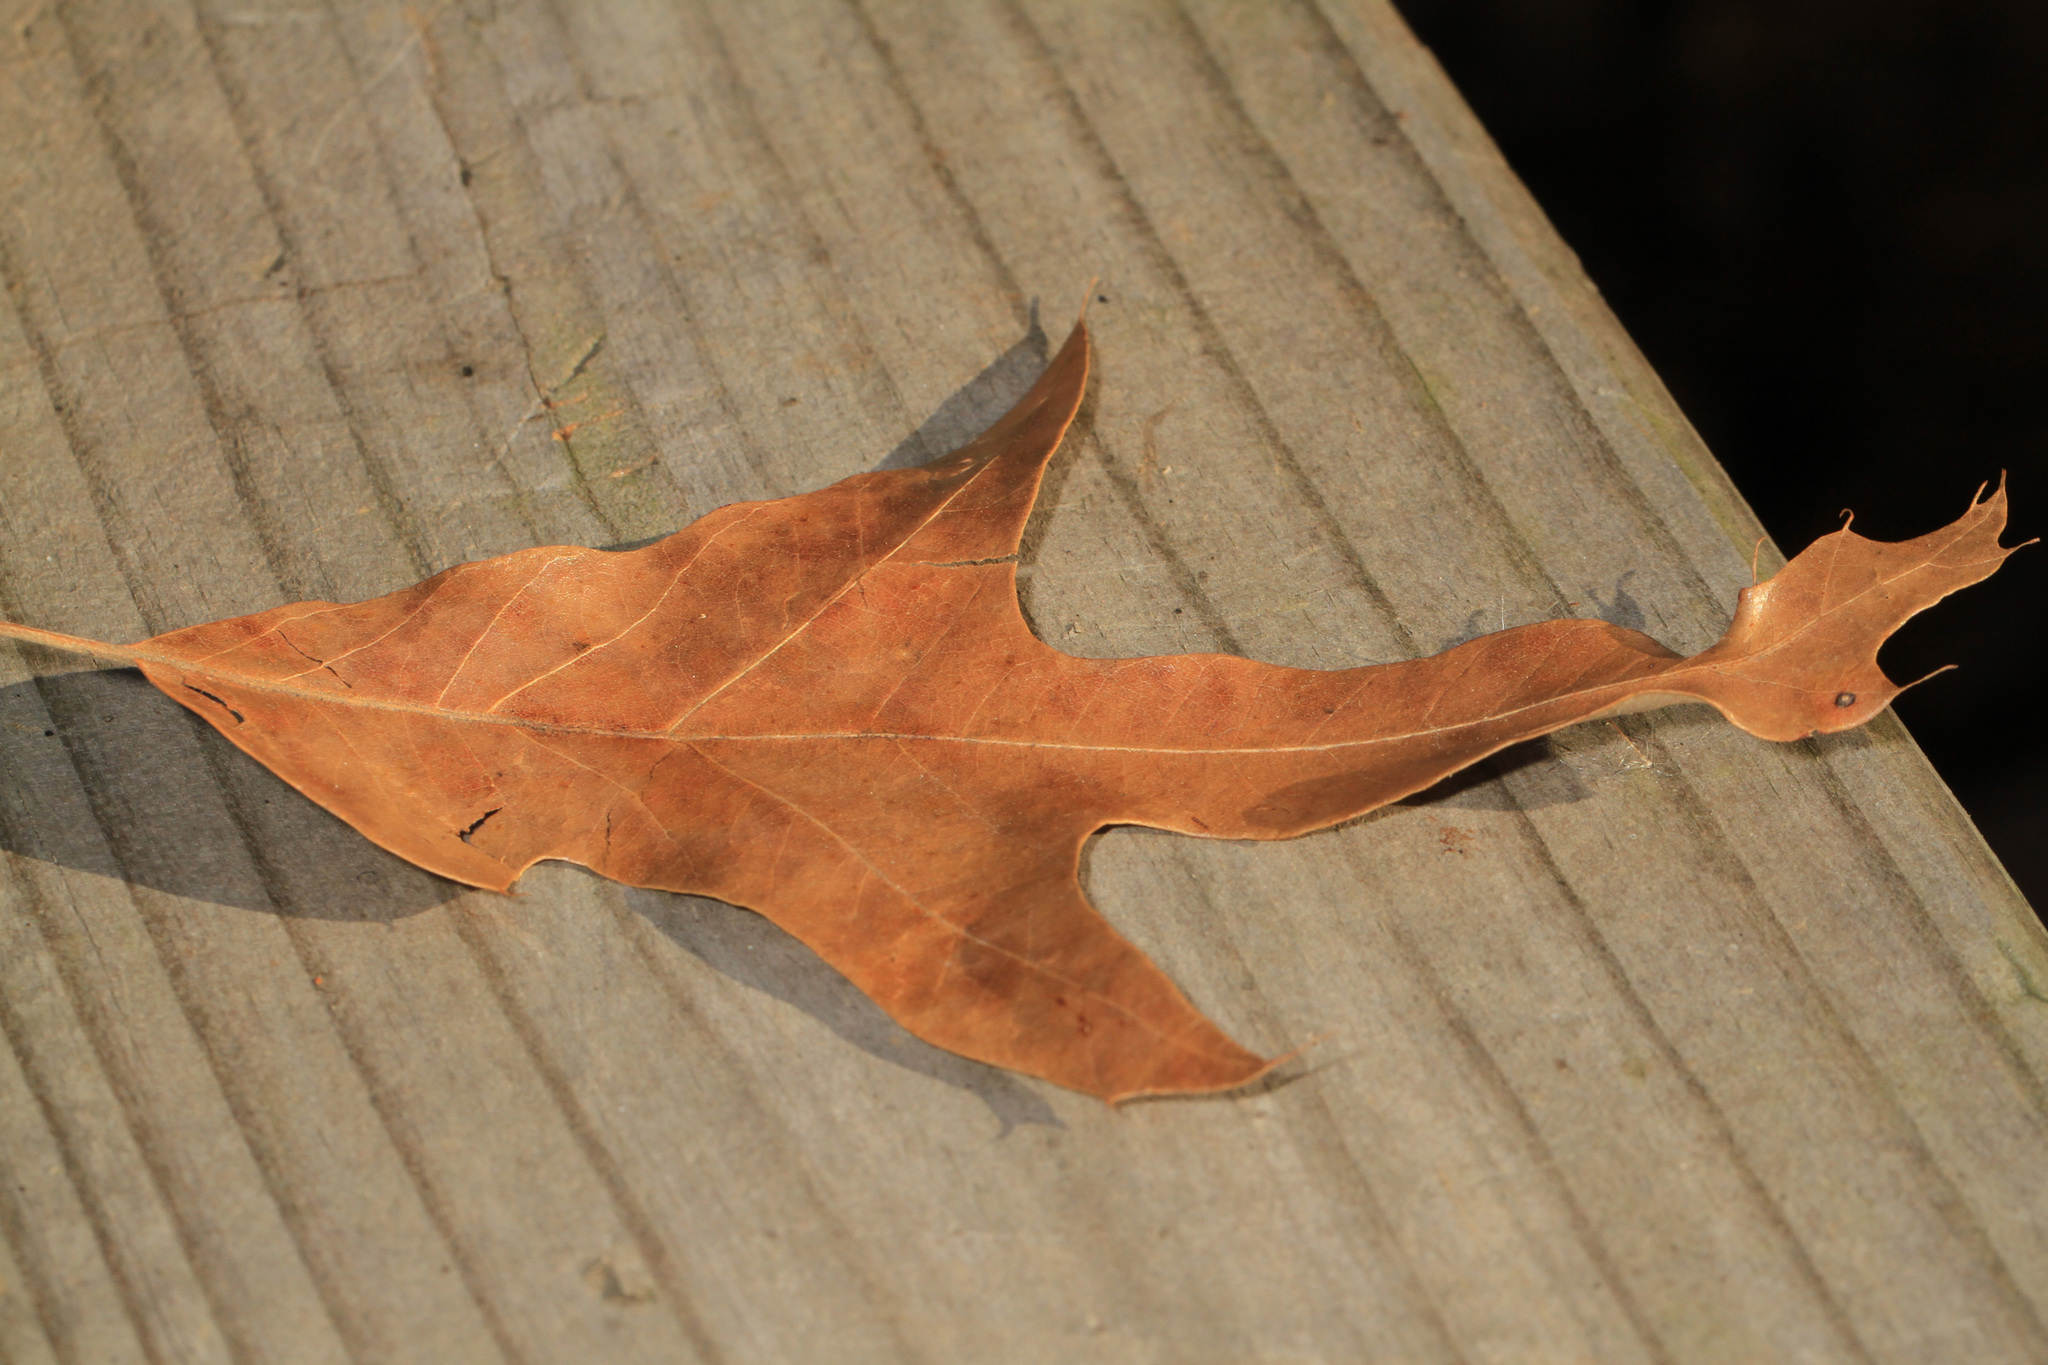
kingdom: Plantae
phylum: Tracheophyta
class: Magnoliopsida
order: Fagales
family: Fagaceae
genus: Quercus
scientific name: Quercus falcata
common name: Southern red oak
